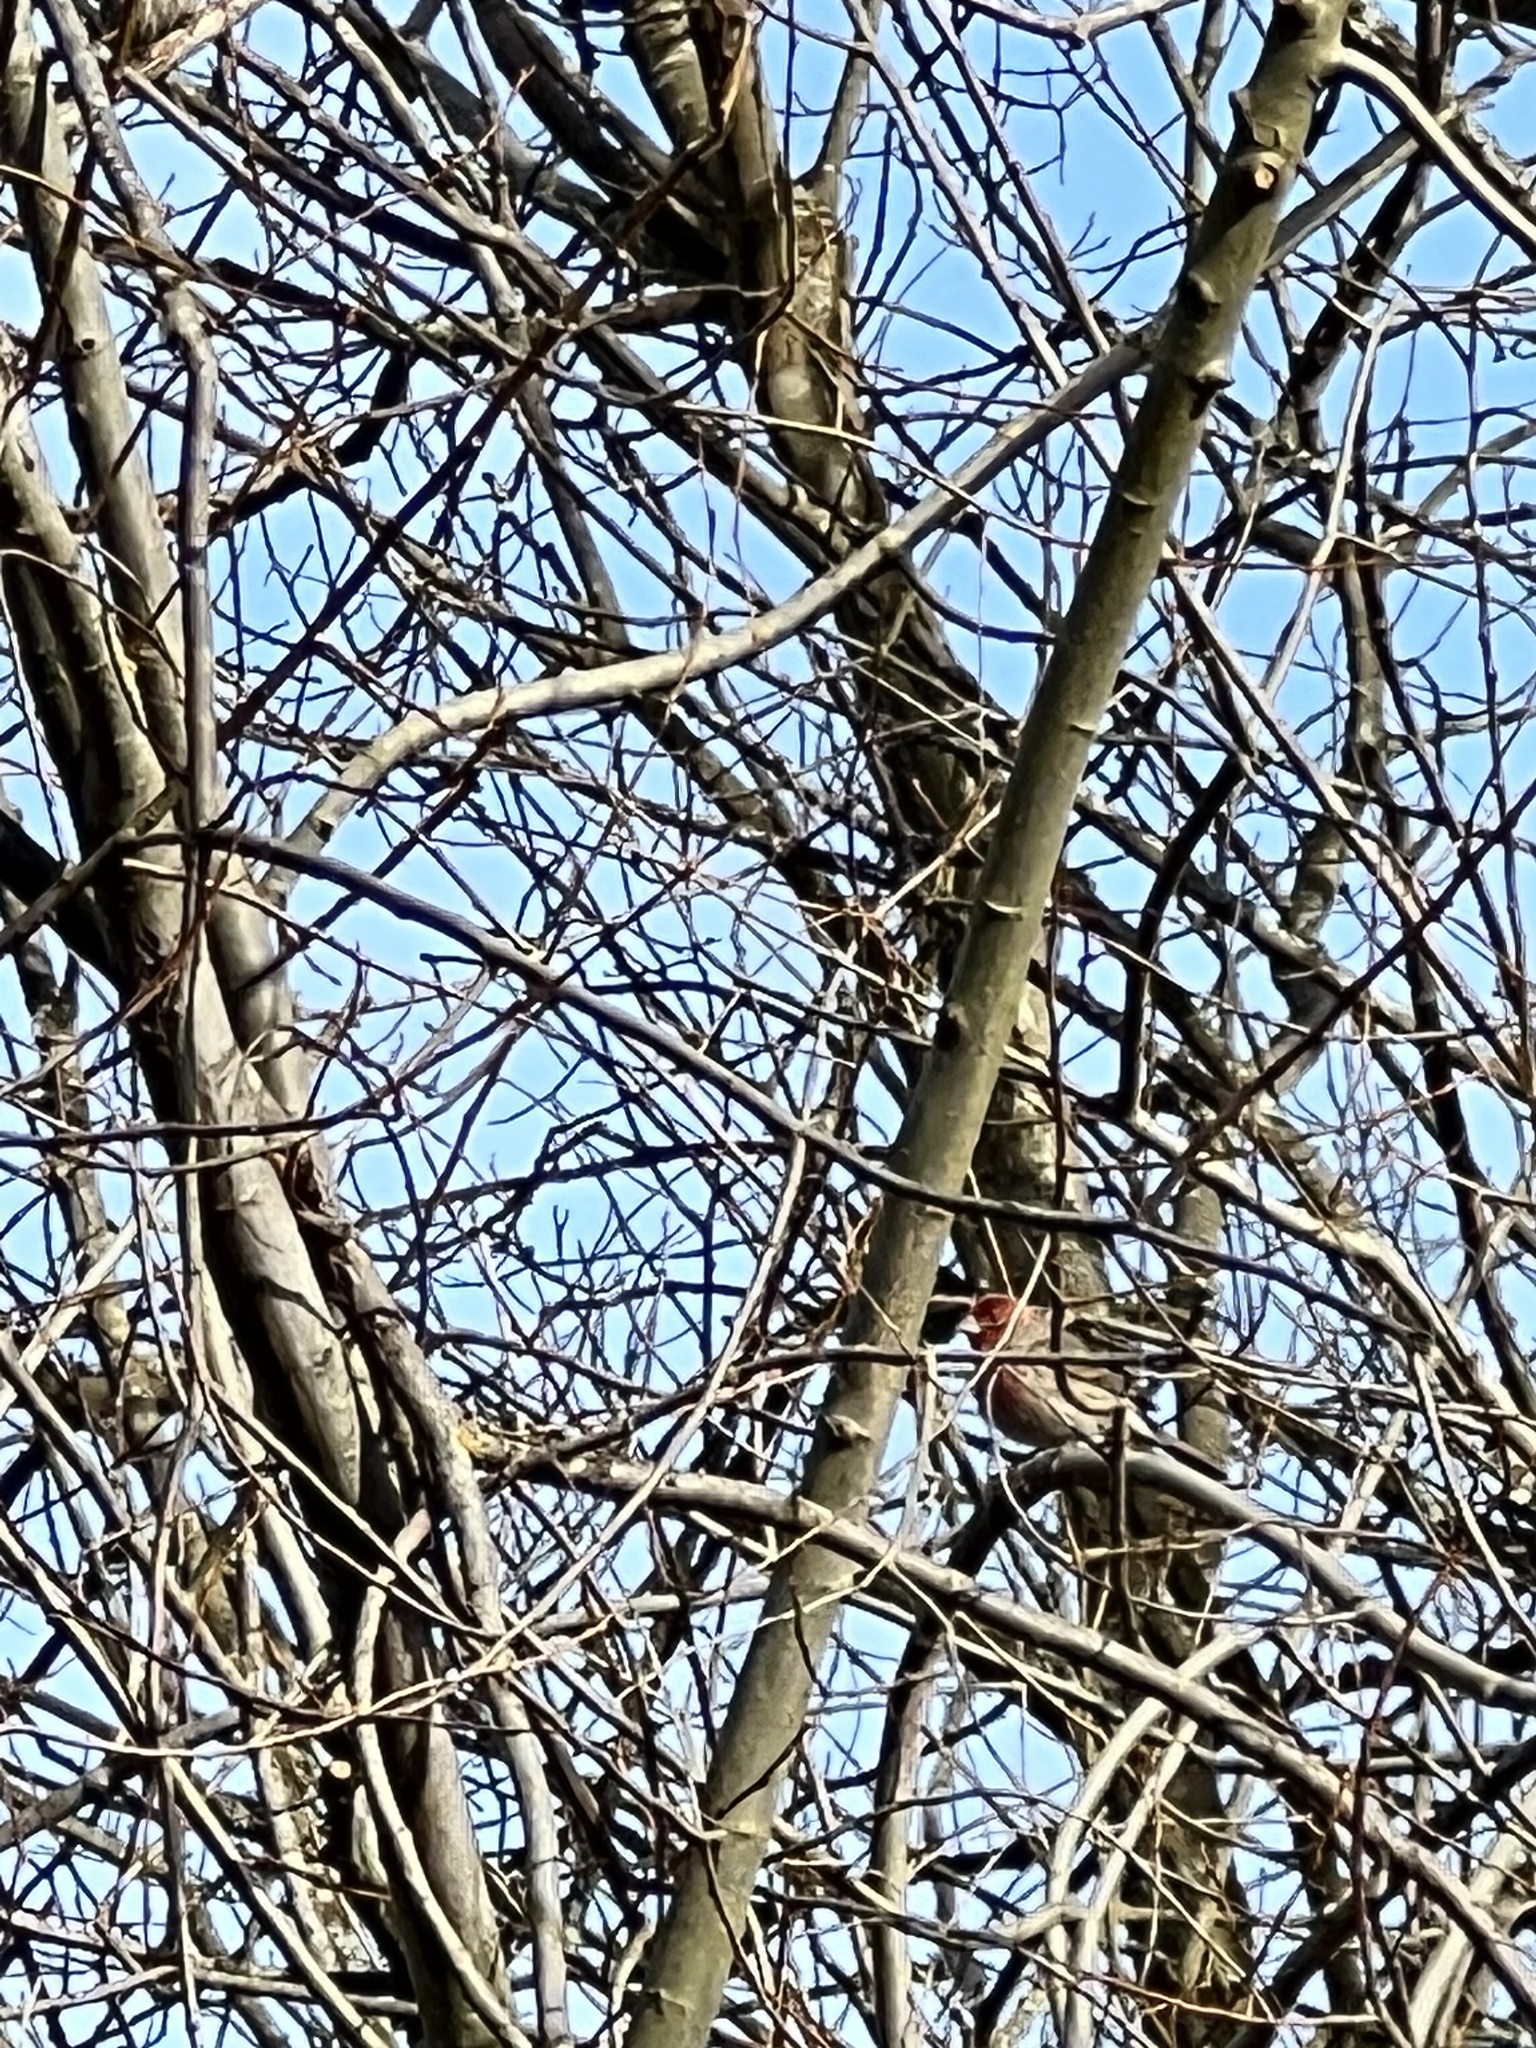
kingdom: Animalia
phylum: Chordata
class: Aves
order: Passeriformes
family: Fringillidae
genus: Haemorhous
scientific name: Haemorhous mexicanus
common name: House finch
